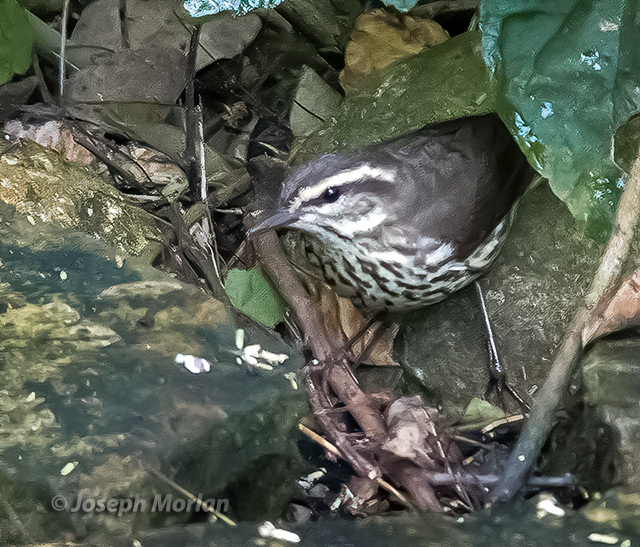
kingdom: Animalia
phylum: Chordata
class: Aves
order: Passeriformes
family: Parulidae
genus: Parkesia
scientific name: Parkesia noveboracensis
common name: Northern waterthrush
